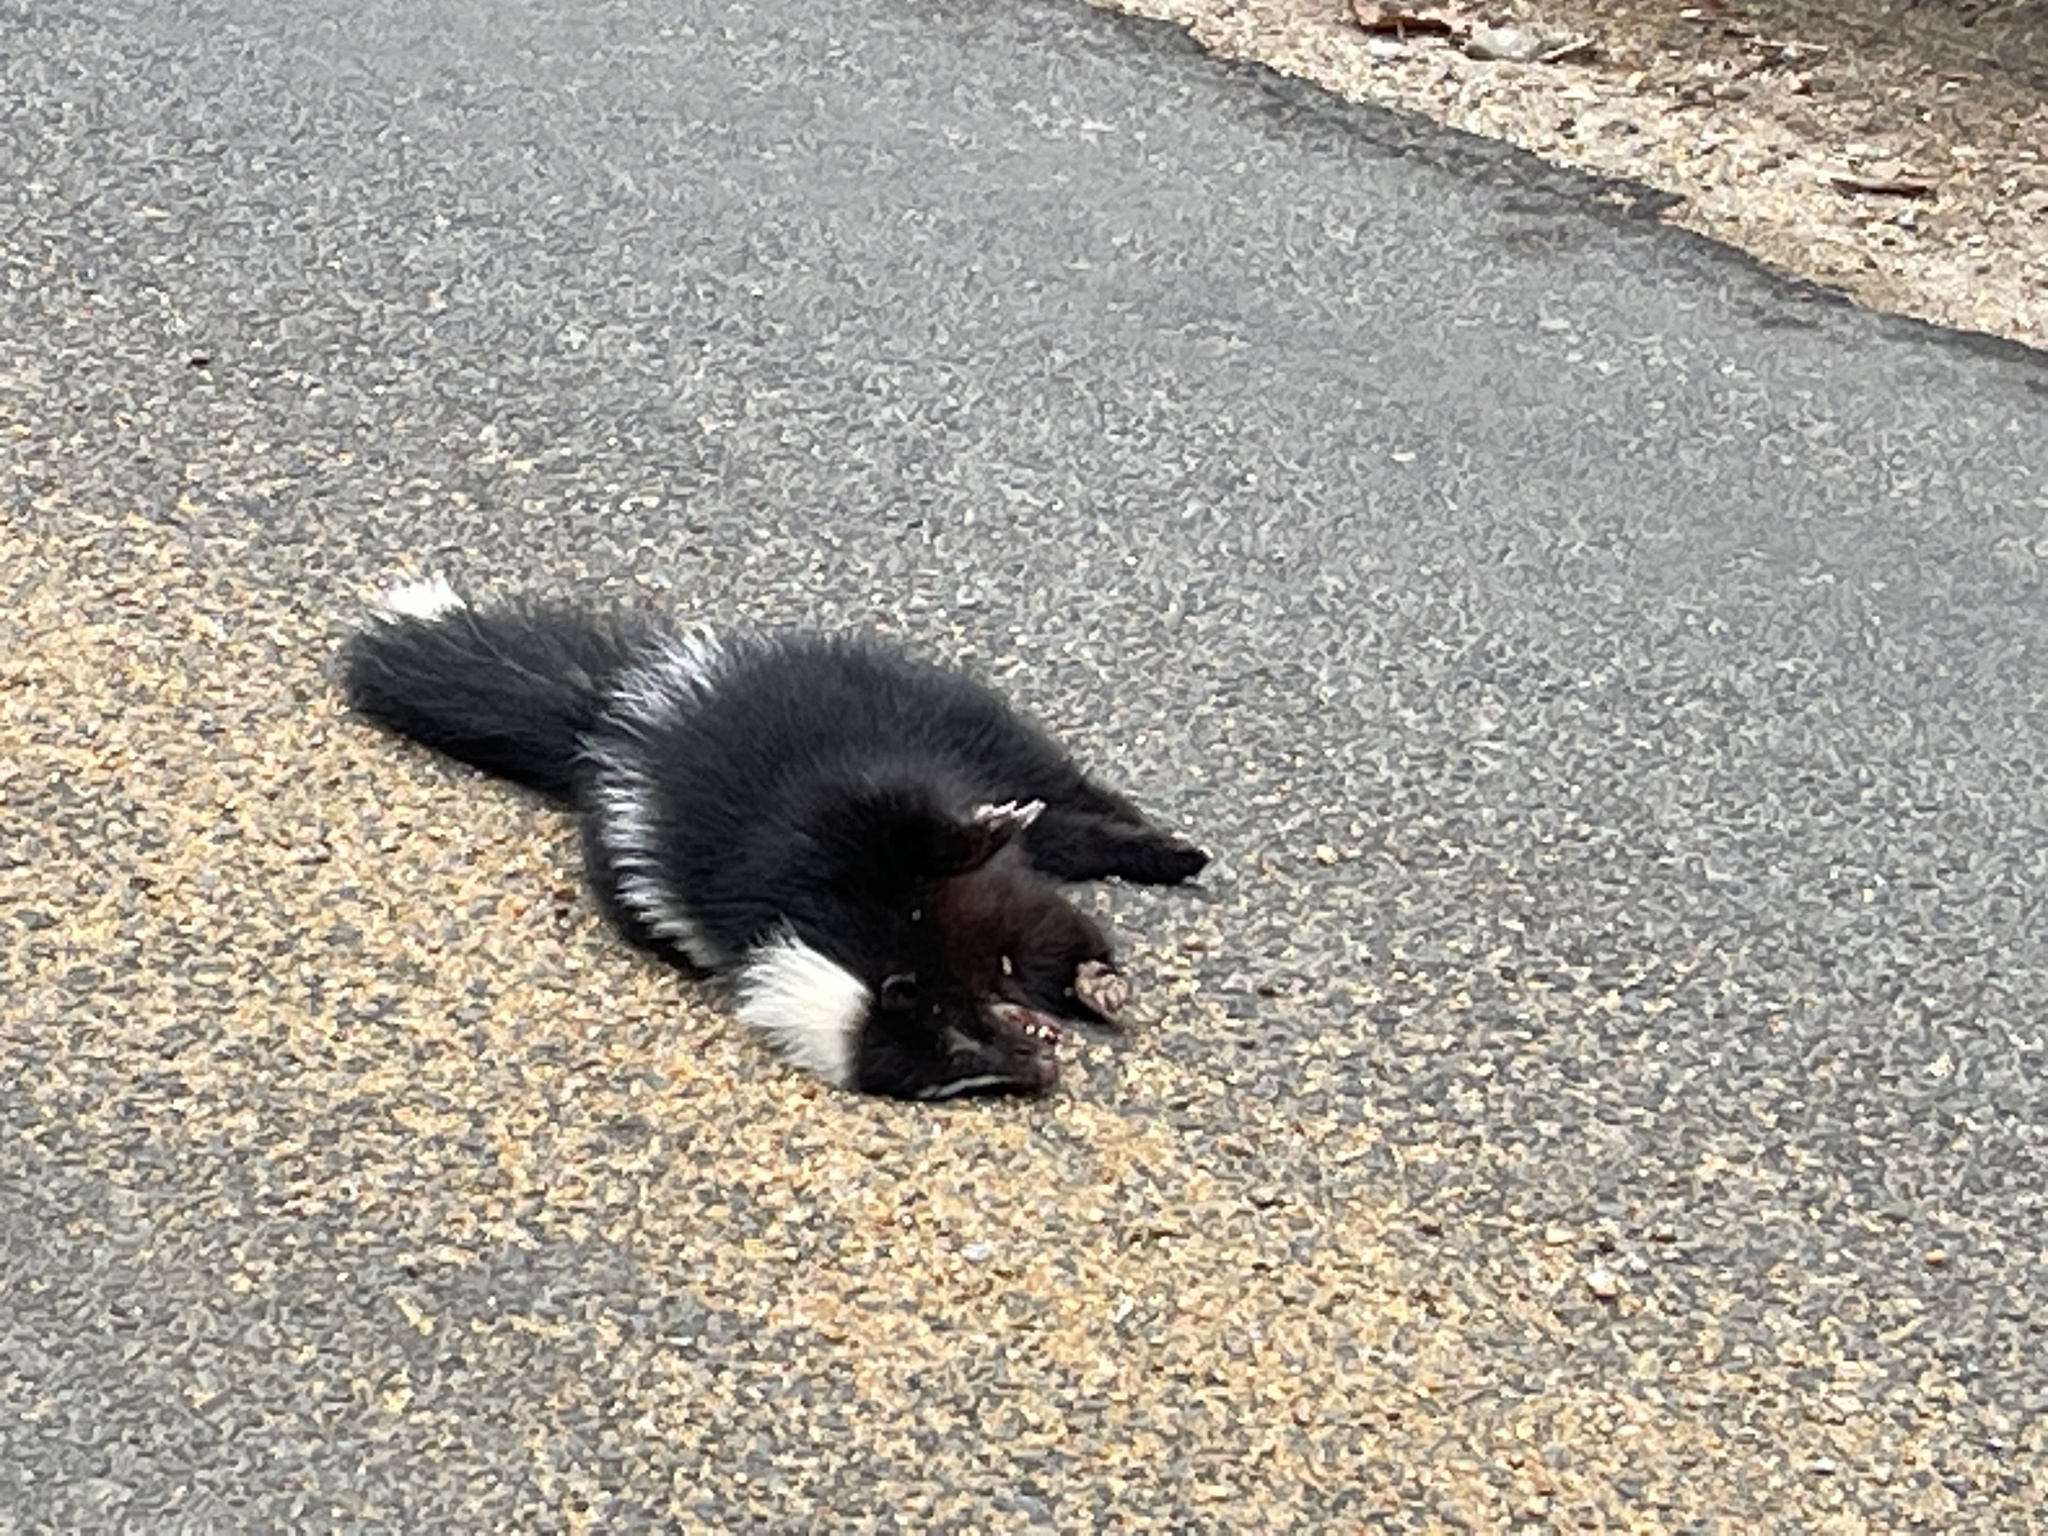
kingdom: Animalia
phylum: Chordata
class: Mammalia
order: Carnivora
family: Mephitidae
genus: Mephitis
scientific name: Mephitis mephitis
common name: Striped skunk
